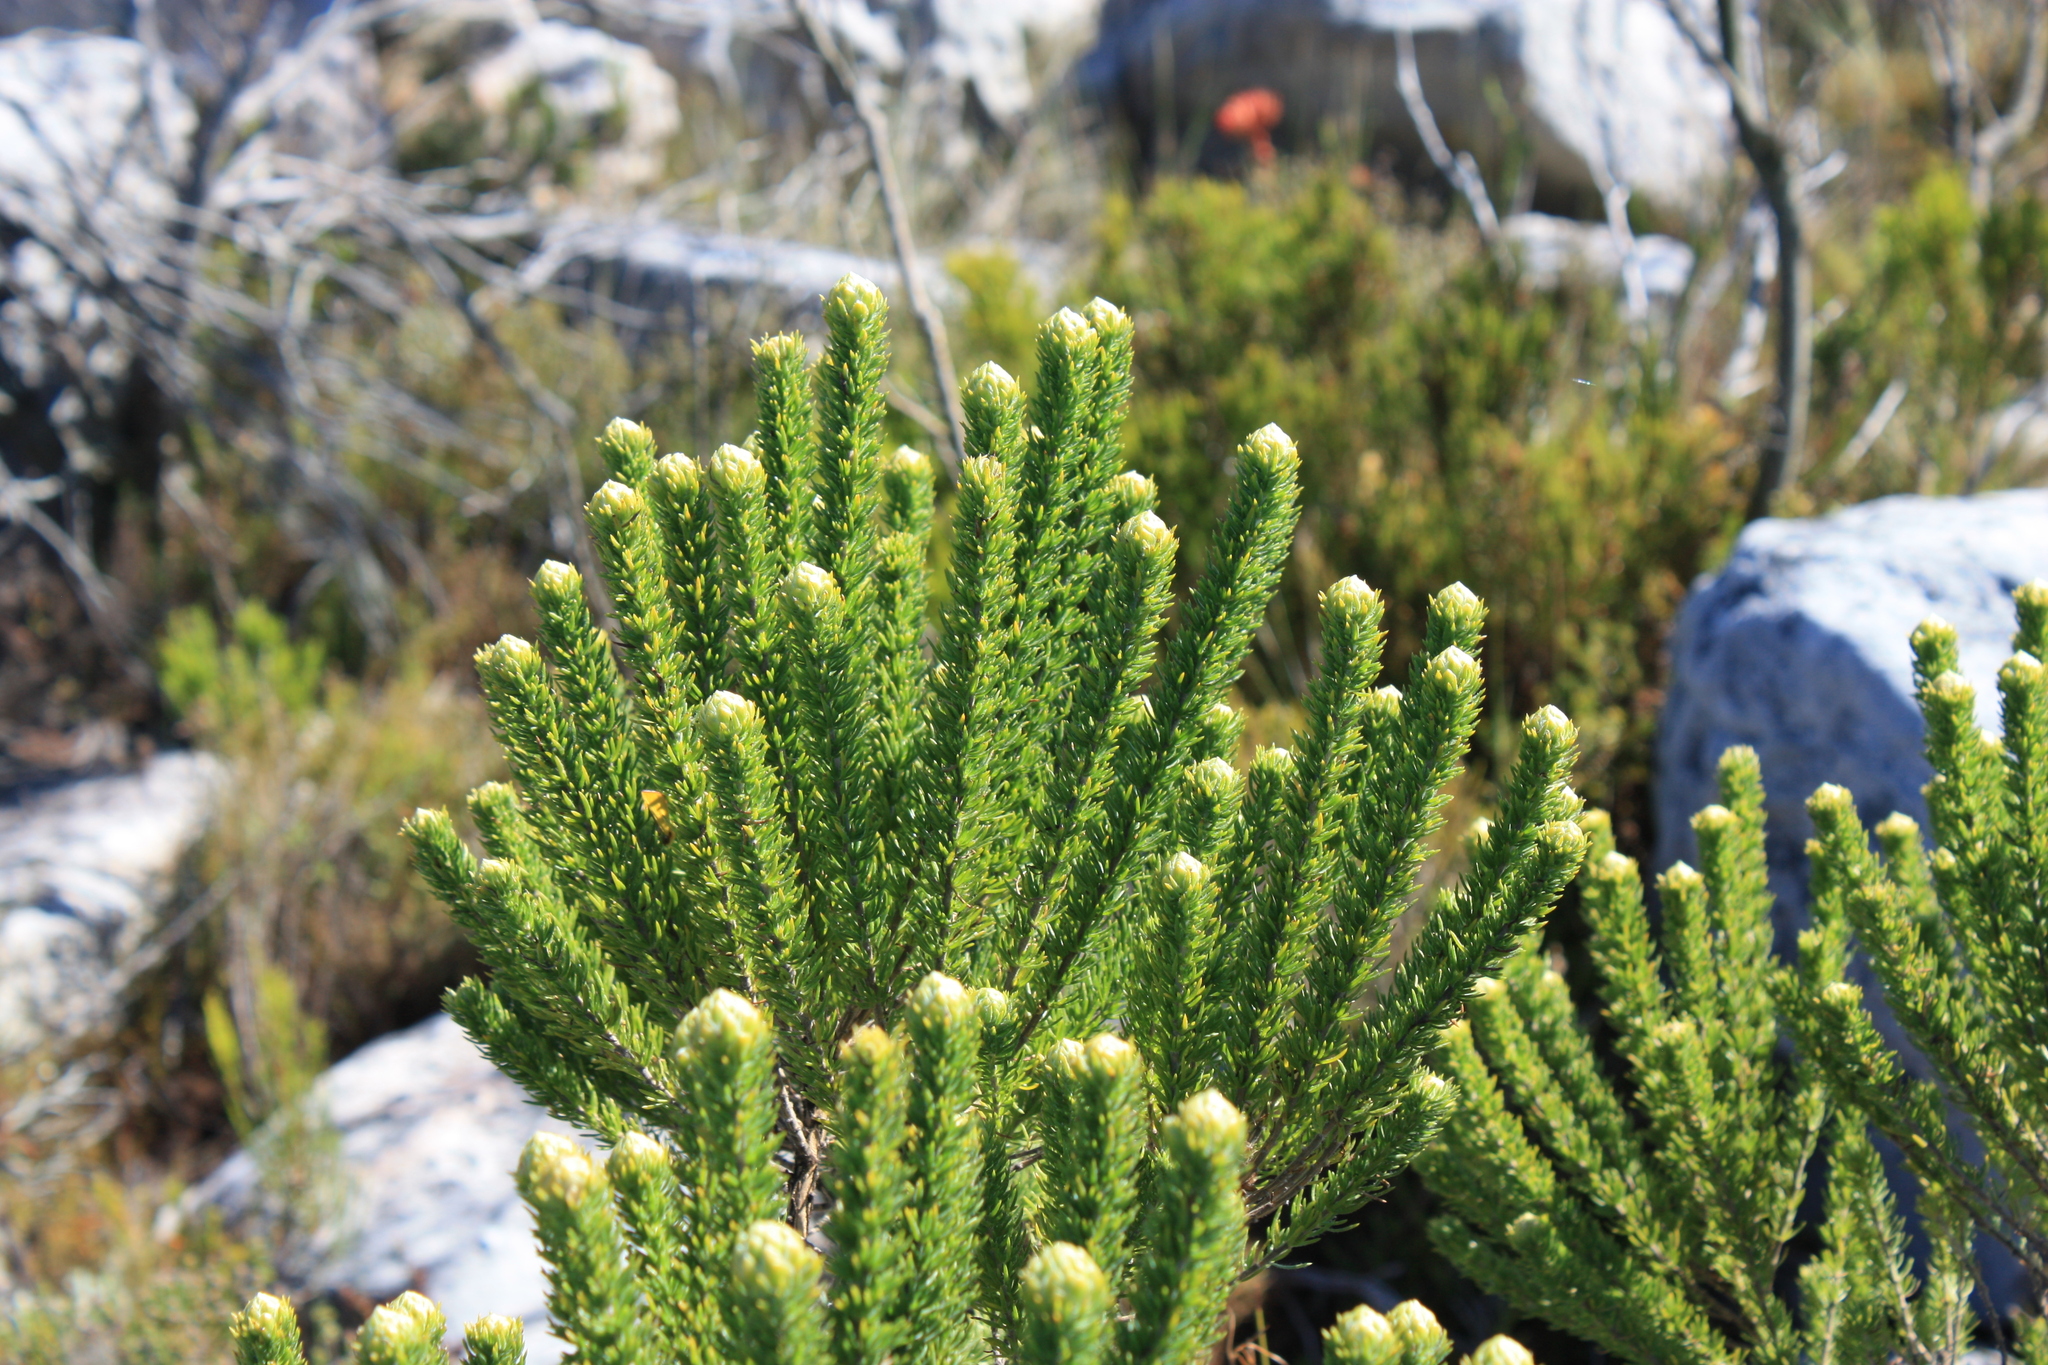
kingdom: Plantae
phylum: Tracheophyta
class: Magnoliopsida
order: Fabales
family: Fabaceae
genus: Aspalathus
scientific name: Aspalathus capitata
